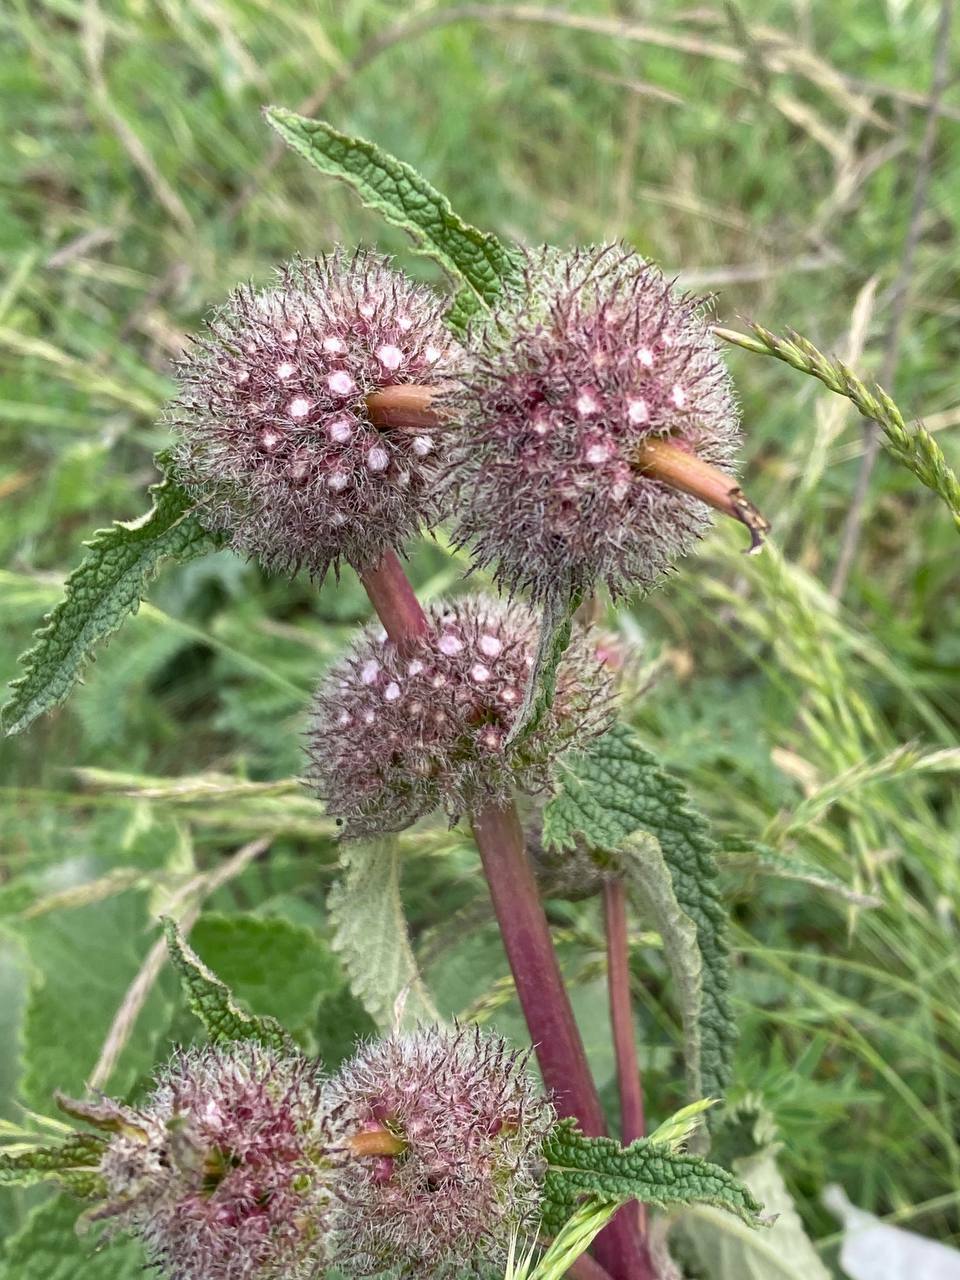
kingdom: Plantae
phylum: Tracheophyta
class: Magnoliopsida
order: Lamiales
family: Lamiaceae
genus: Phlomoides
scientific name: Phlomoides tuberosa
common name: Tuberous jerusalem sage
